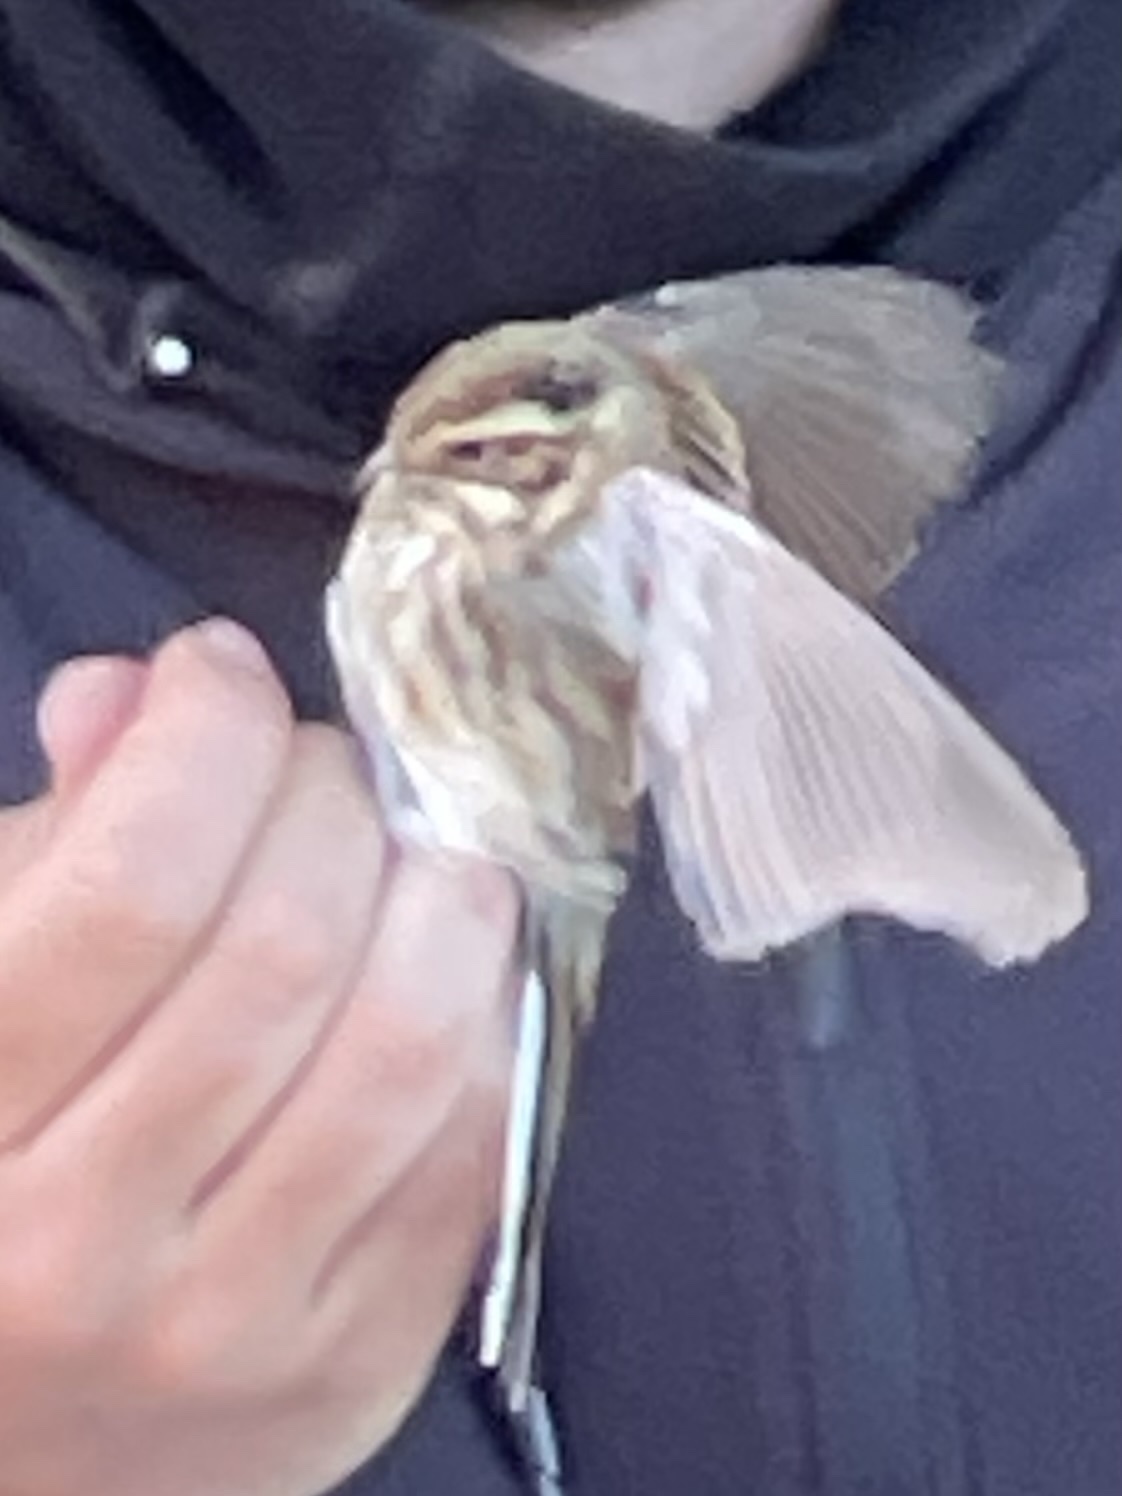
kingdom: Animalia
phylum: Chordata
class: Aves
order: Passeriformes
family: Emberizidae
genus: Emberiza
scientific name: Emberiza schoeniclus
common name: Reed bunting
